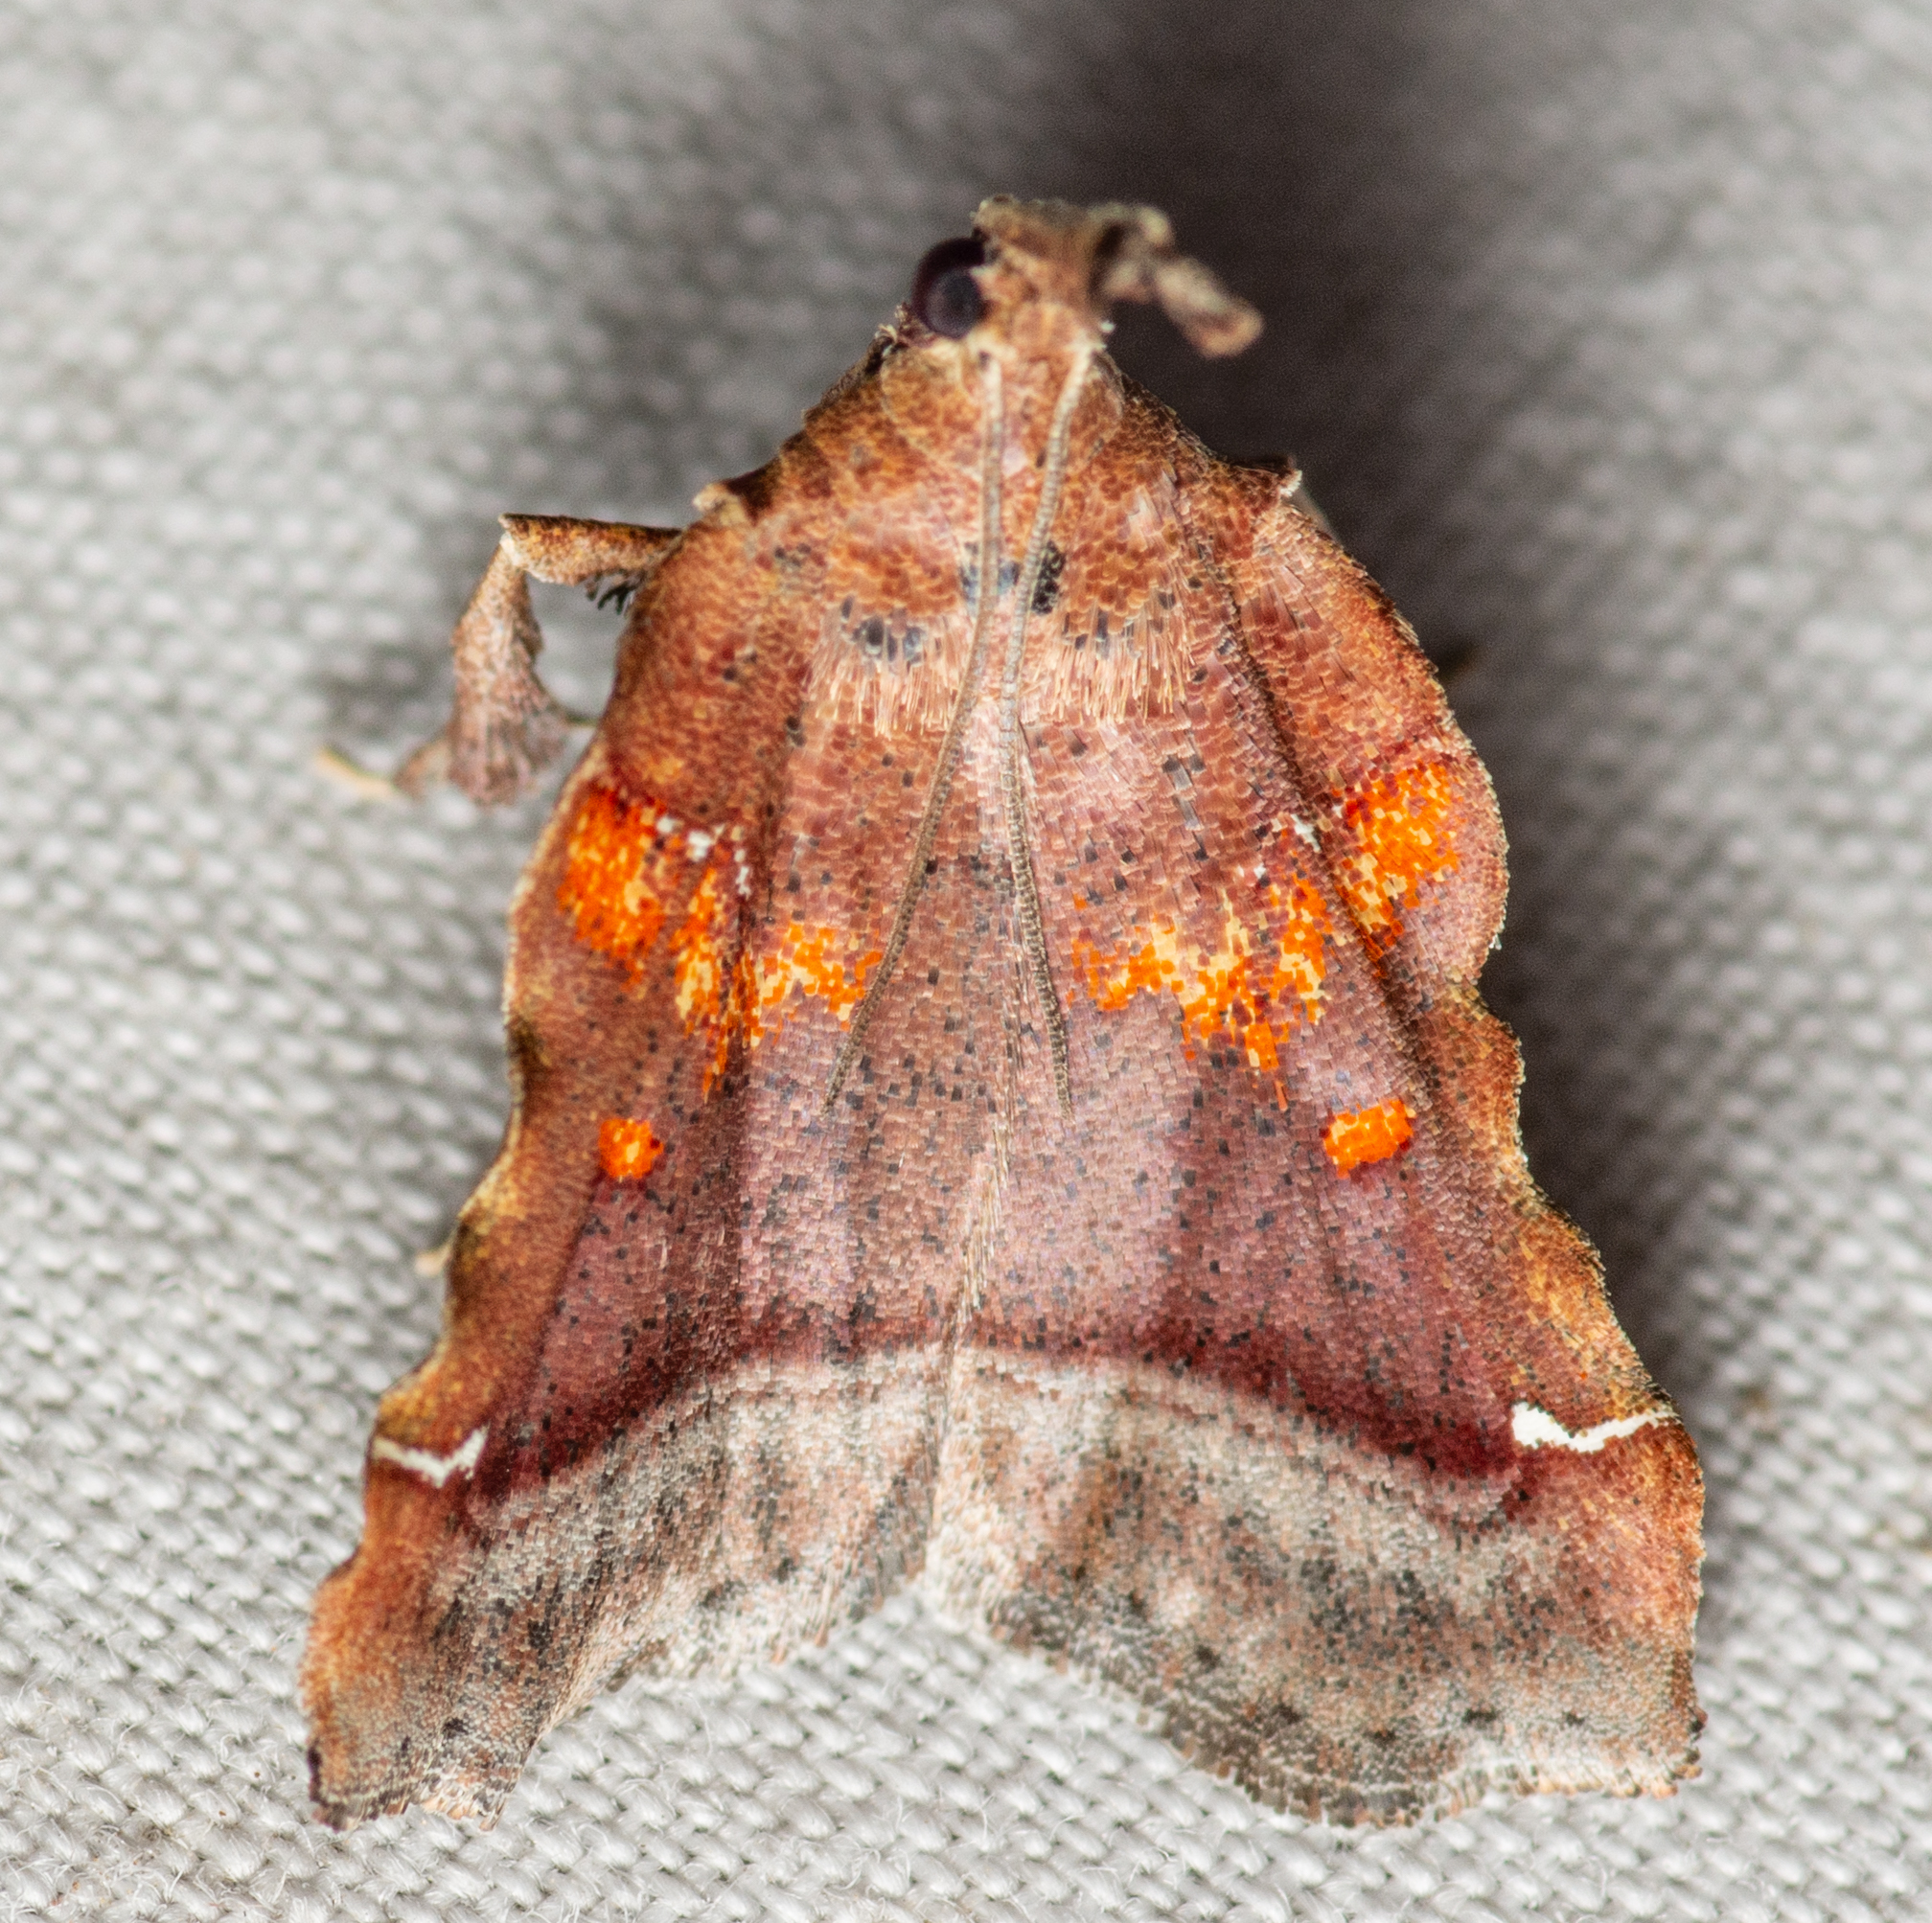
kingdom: Animalia
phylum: Arthropoda
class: Insecta
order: Lepidoptera
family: Pyralidae
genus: Clydonopteron
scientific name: Clydonopteron sacculana
